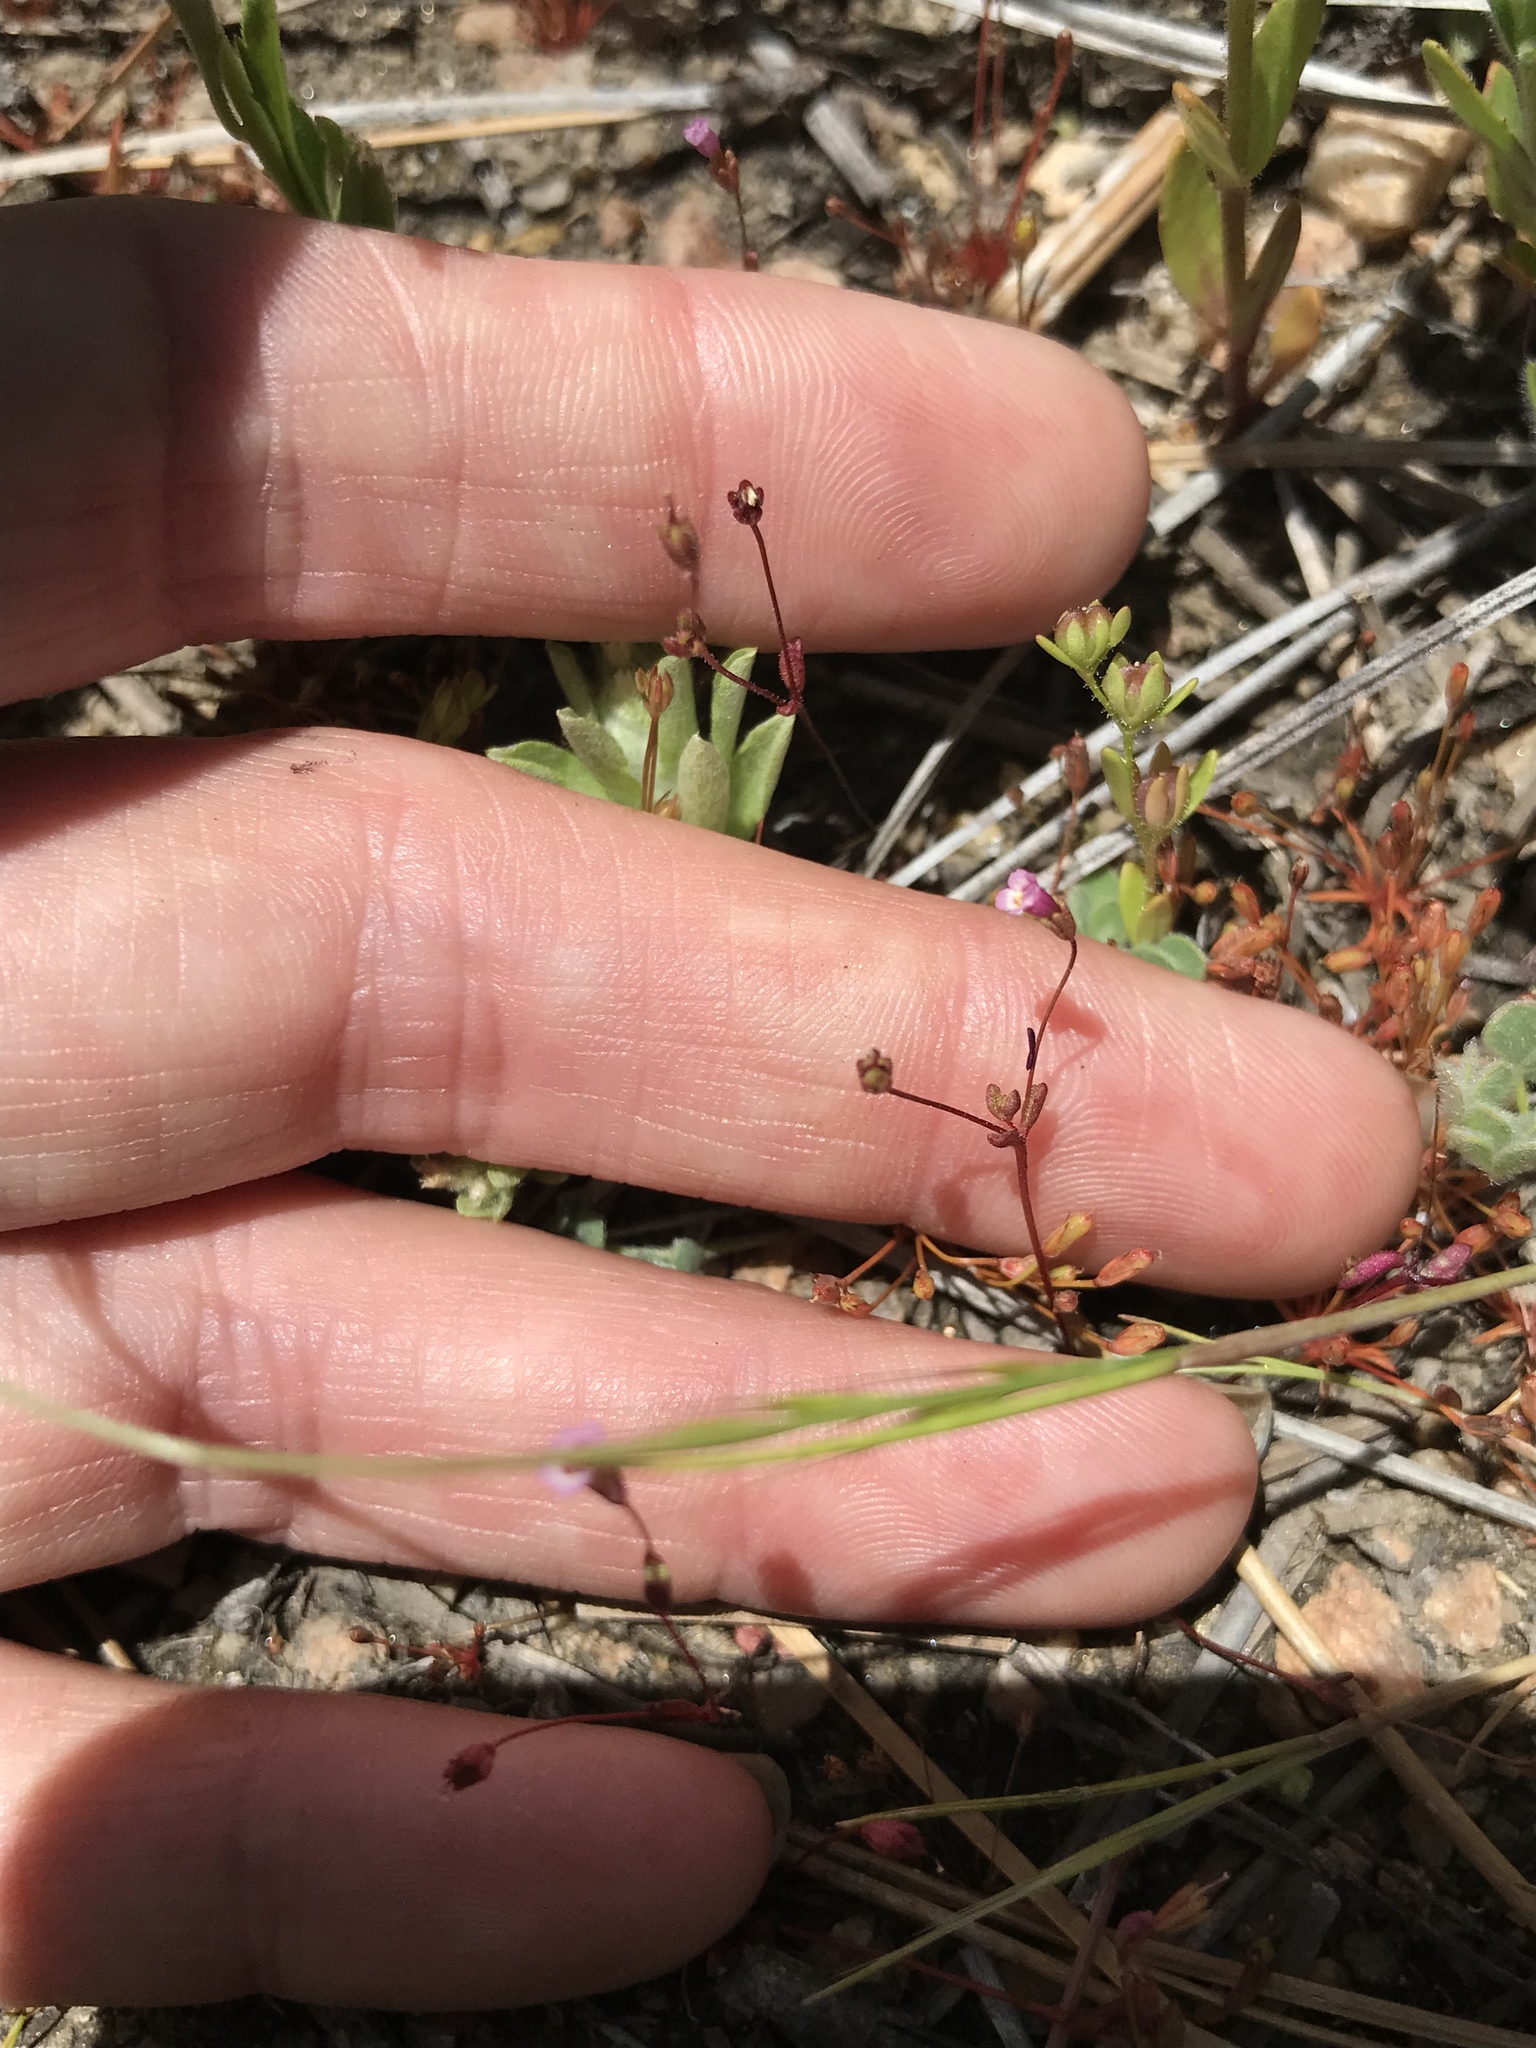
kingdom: Plantae
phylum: Tracheophyta
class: Magnoliopsida
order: Lamiales
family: Phrymaceae
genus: Erythranthe
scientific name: Erythranthe exigua
